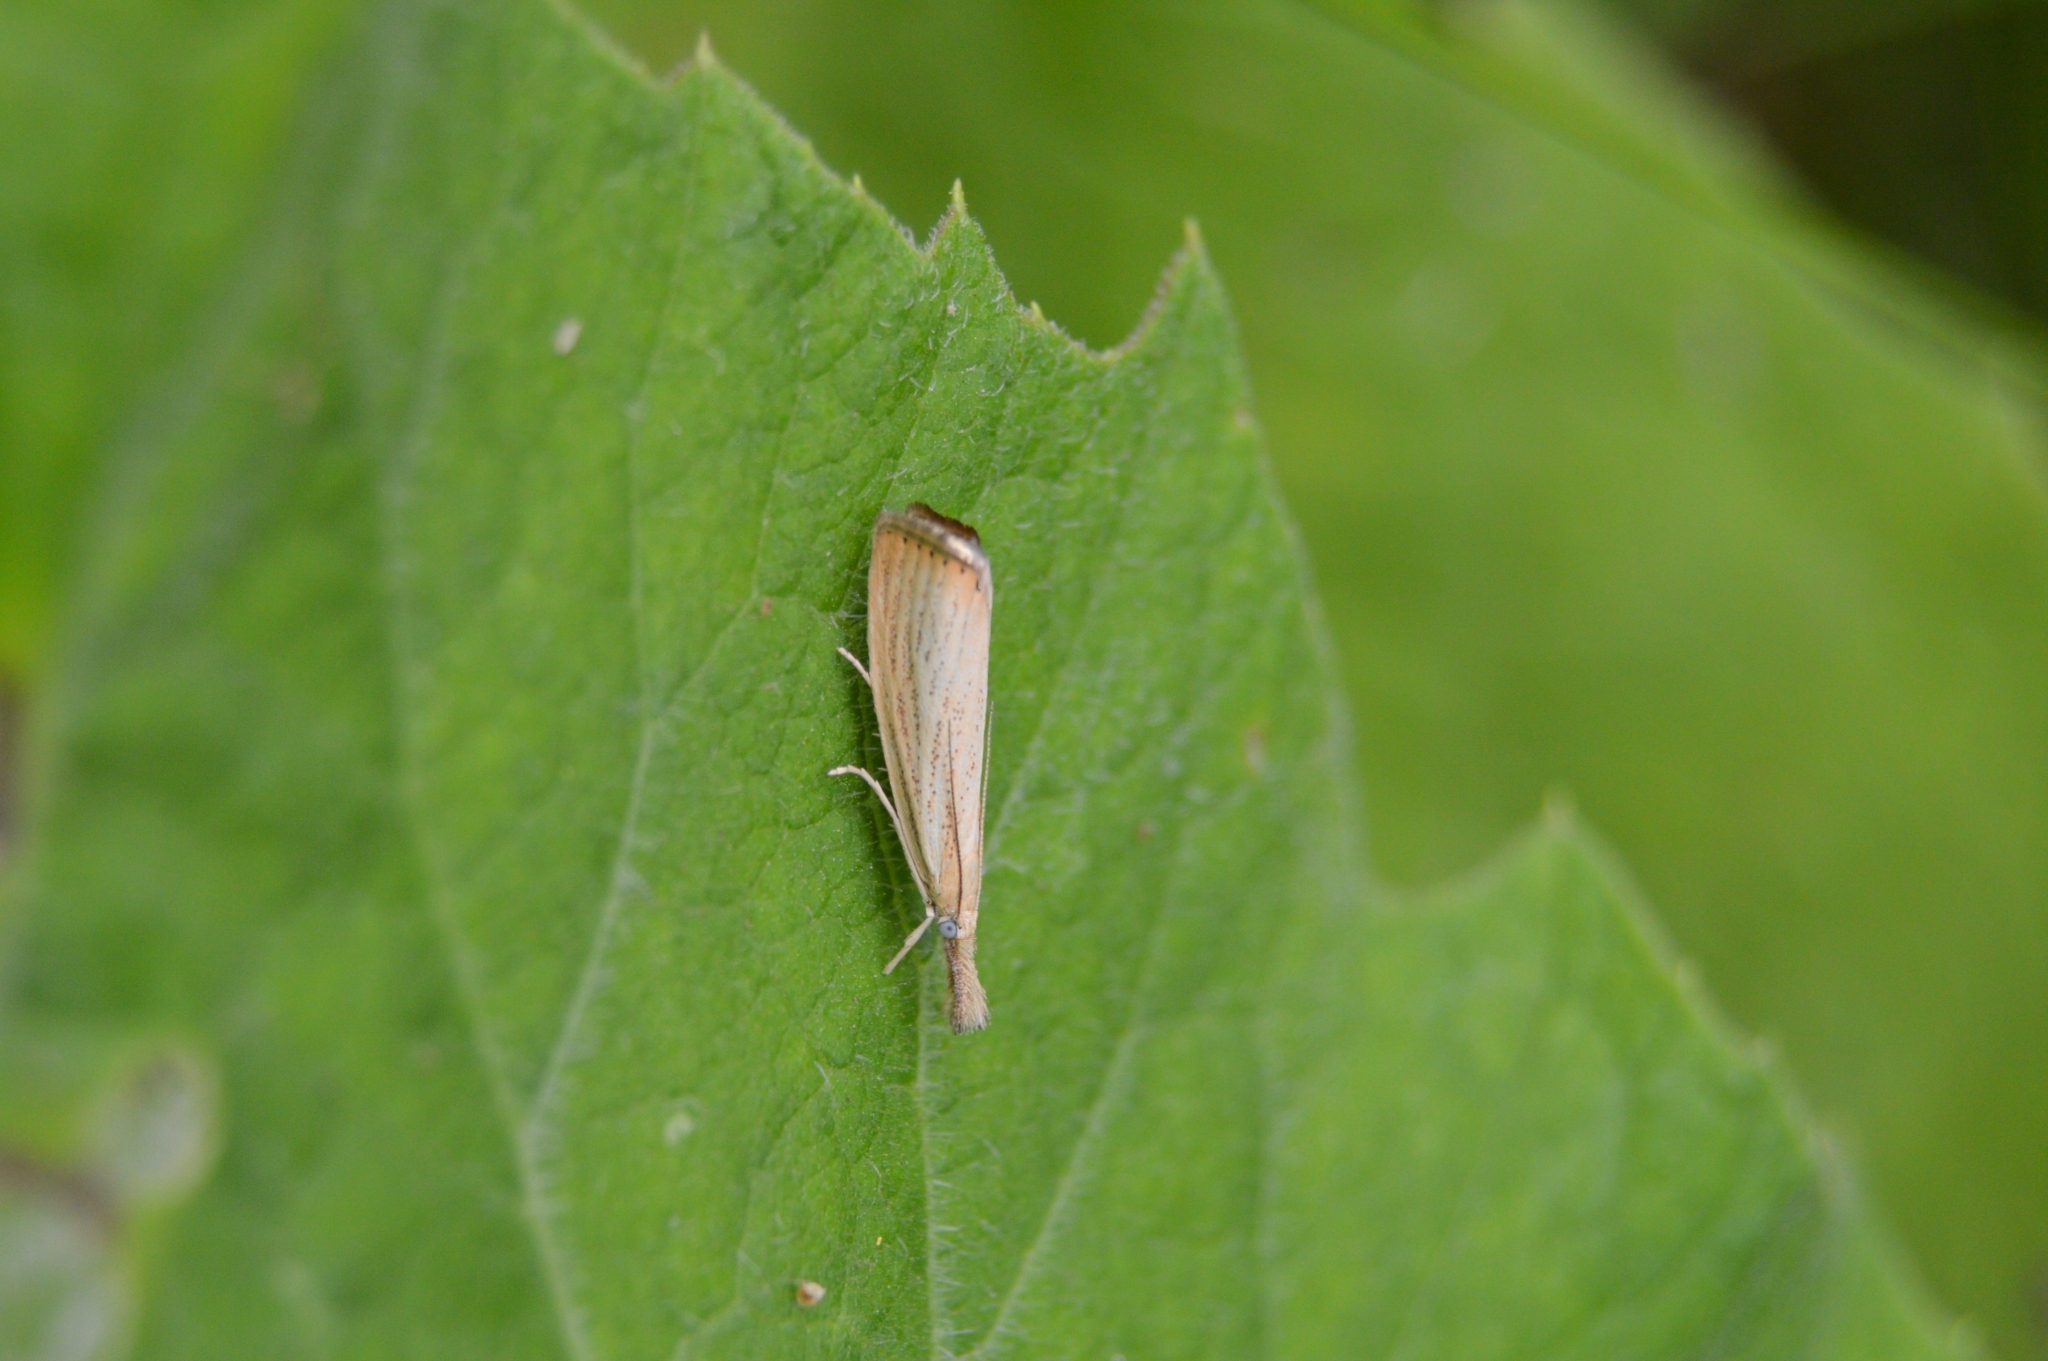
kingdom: Animalia
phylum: Arthropoda
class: Insecta
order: Lepidoptera
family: Crambidae
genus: Agriphila
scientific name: Agriphila straminella
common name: Straw grass-veneer
